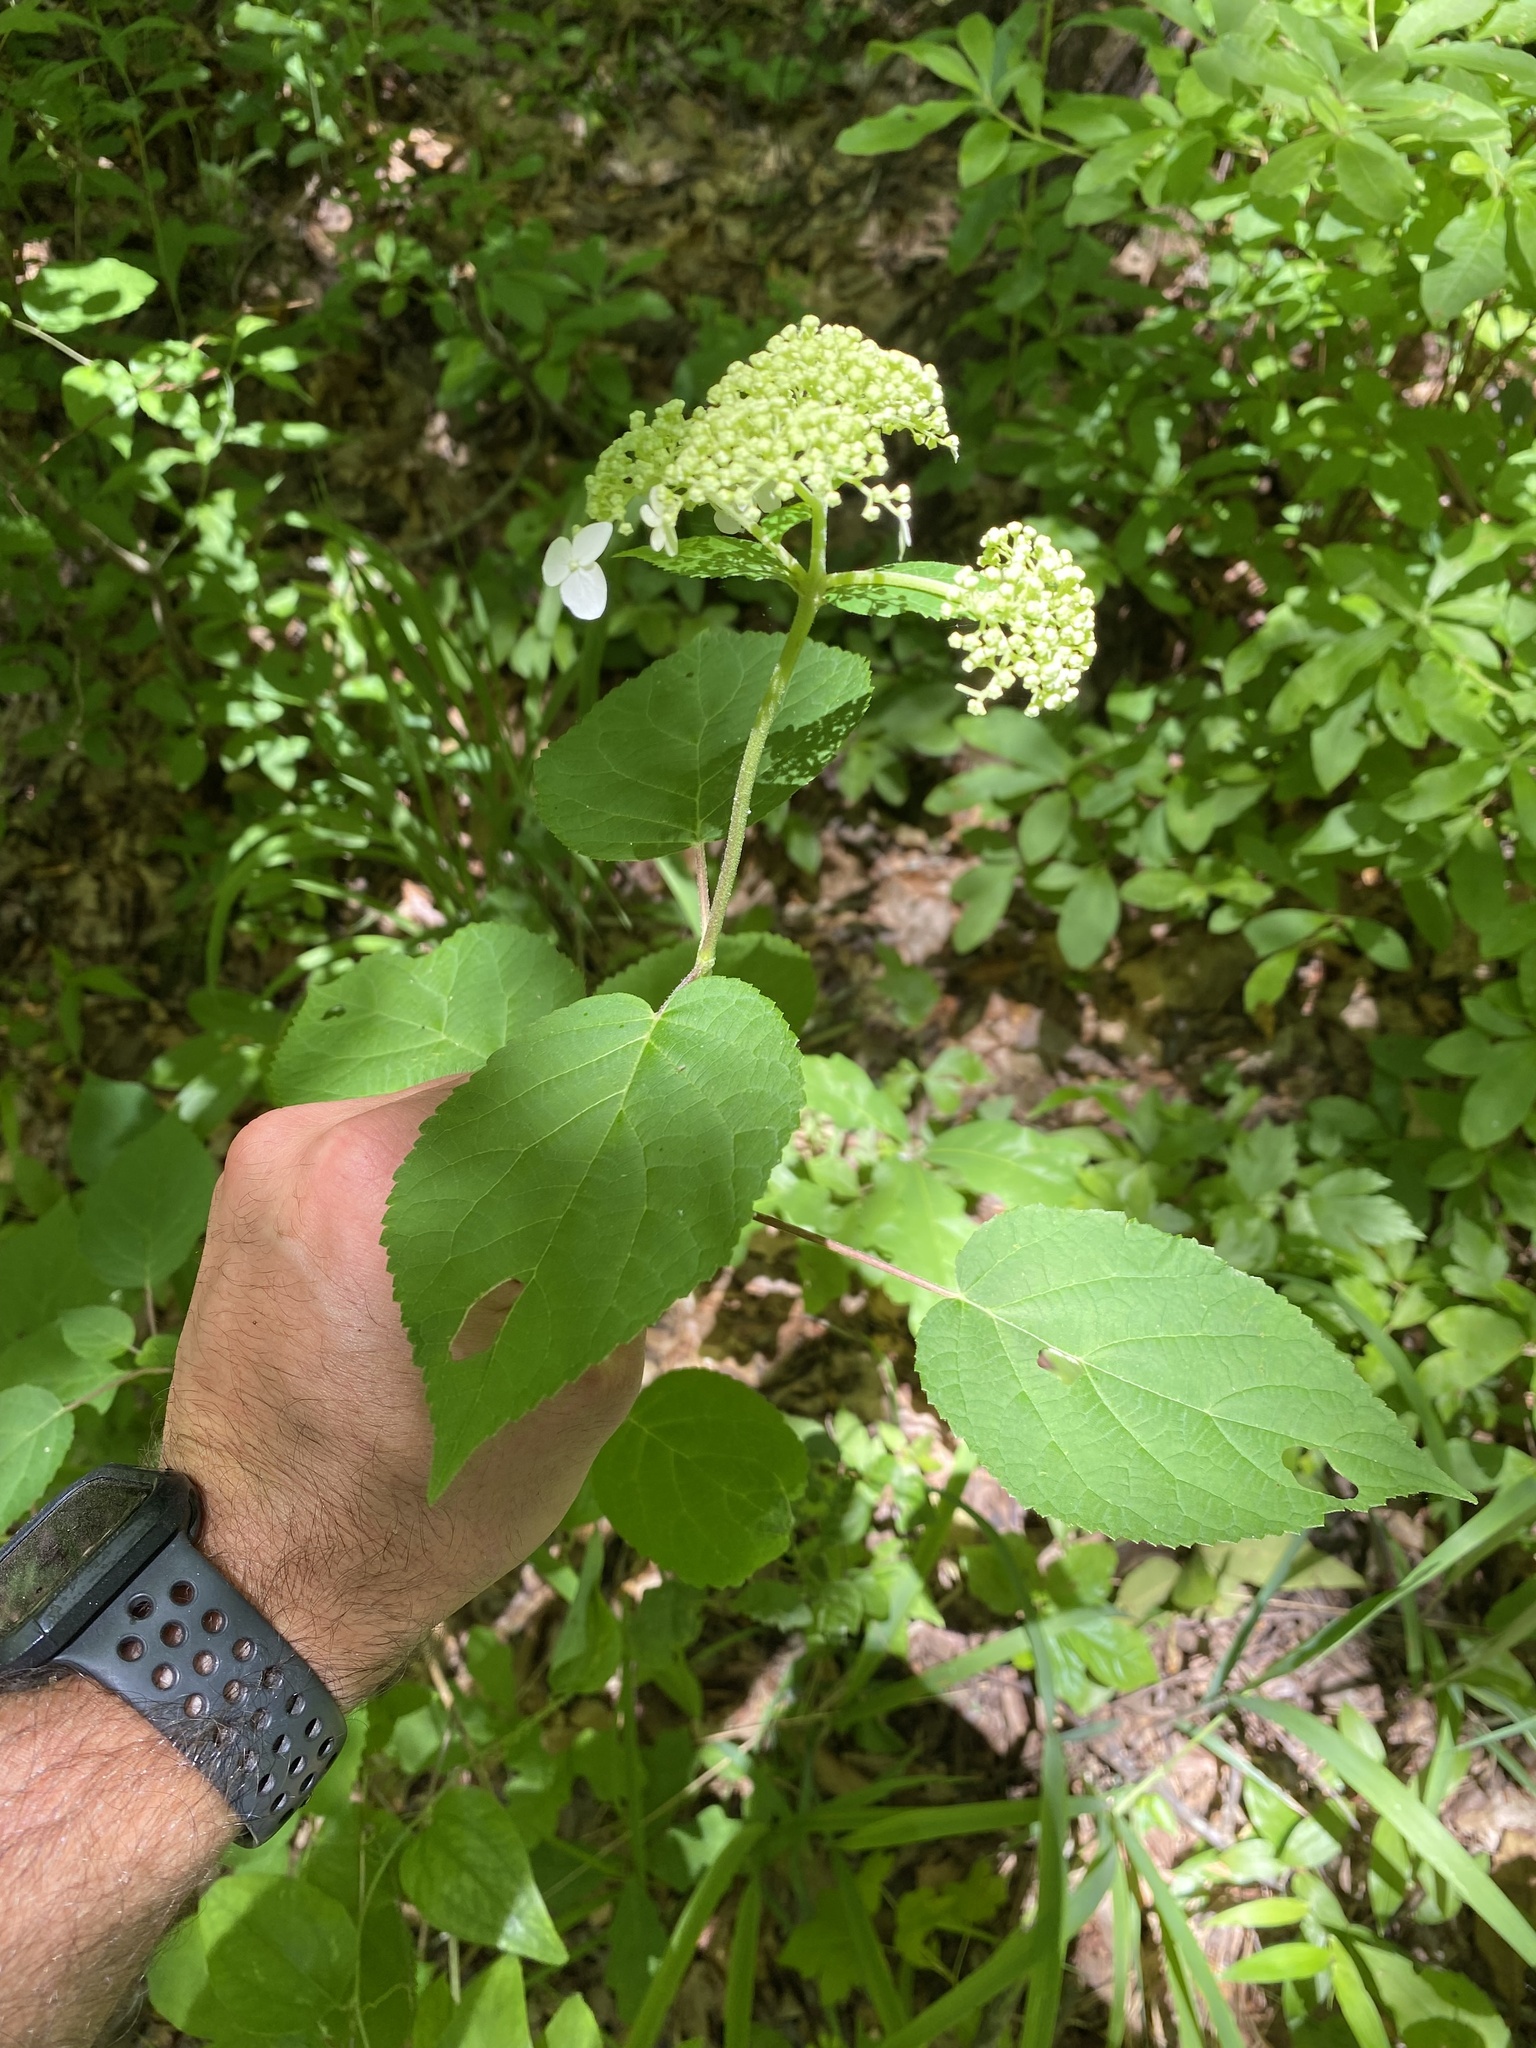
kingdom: Plantae
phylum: Tracheophyta
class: Magnoliopsida
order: Cornales
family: Hydrangeaceae
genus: Hydrangea
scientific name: Hydrangea arborescens
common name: Sevenbark
